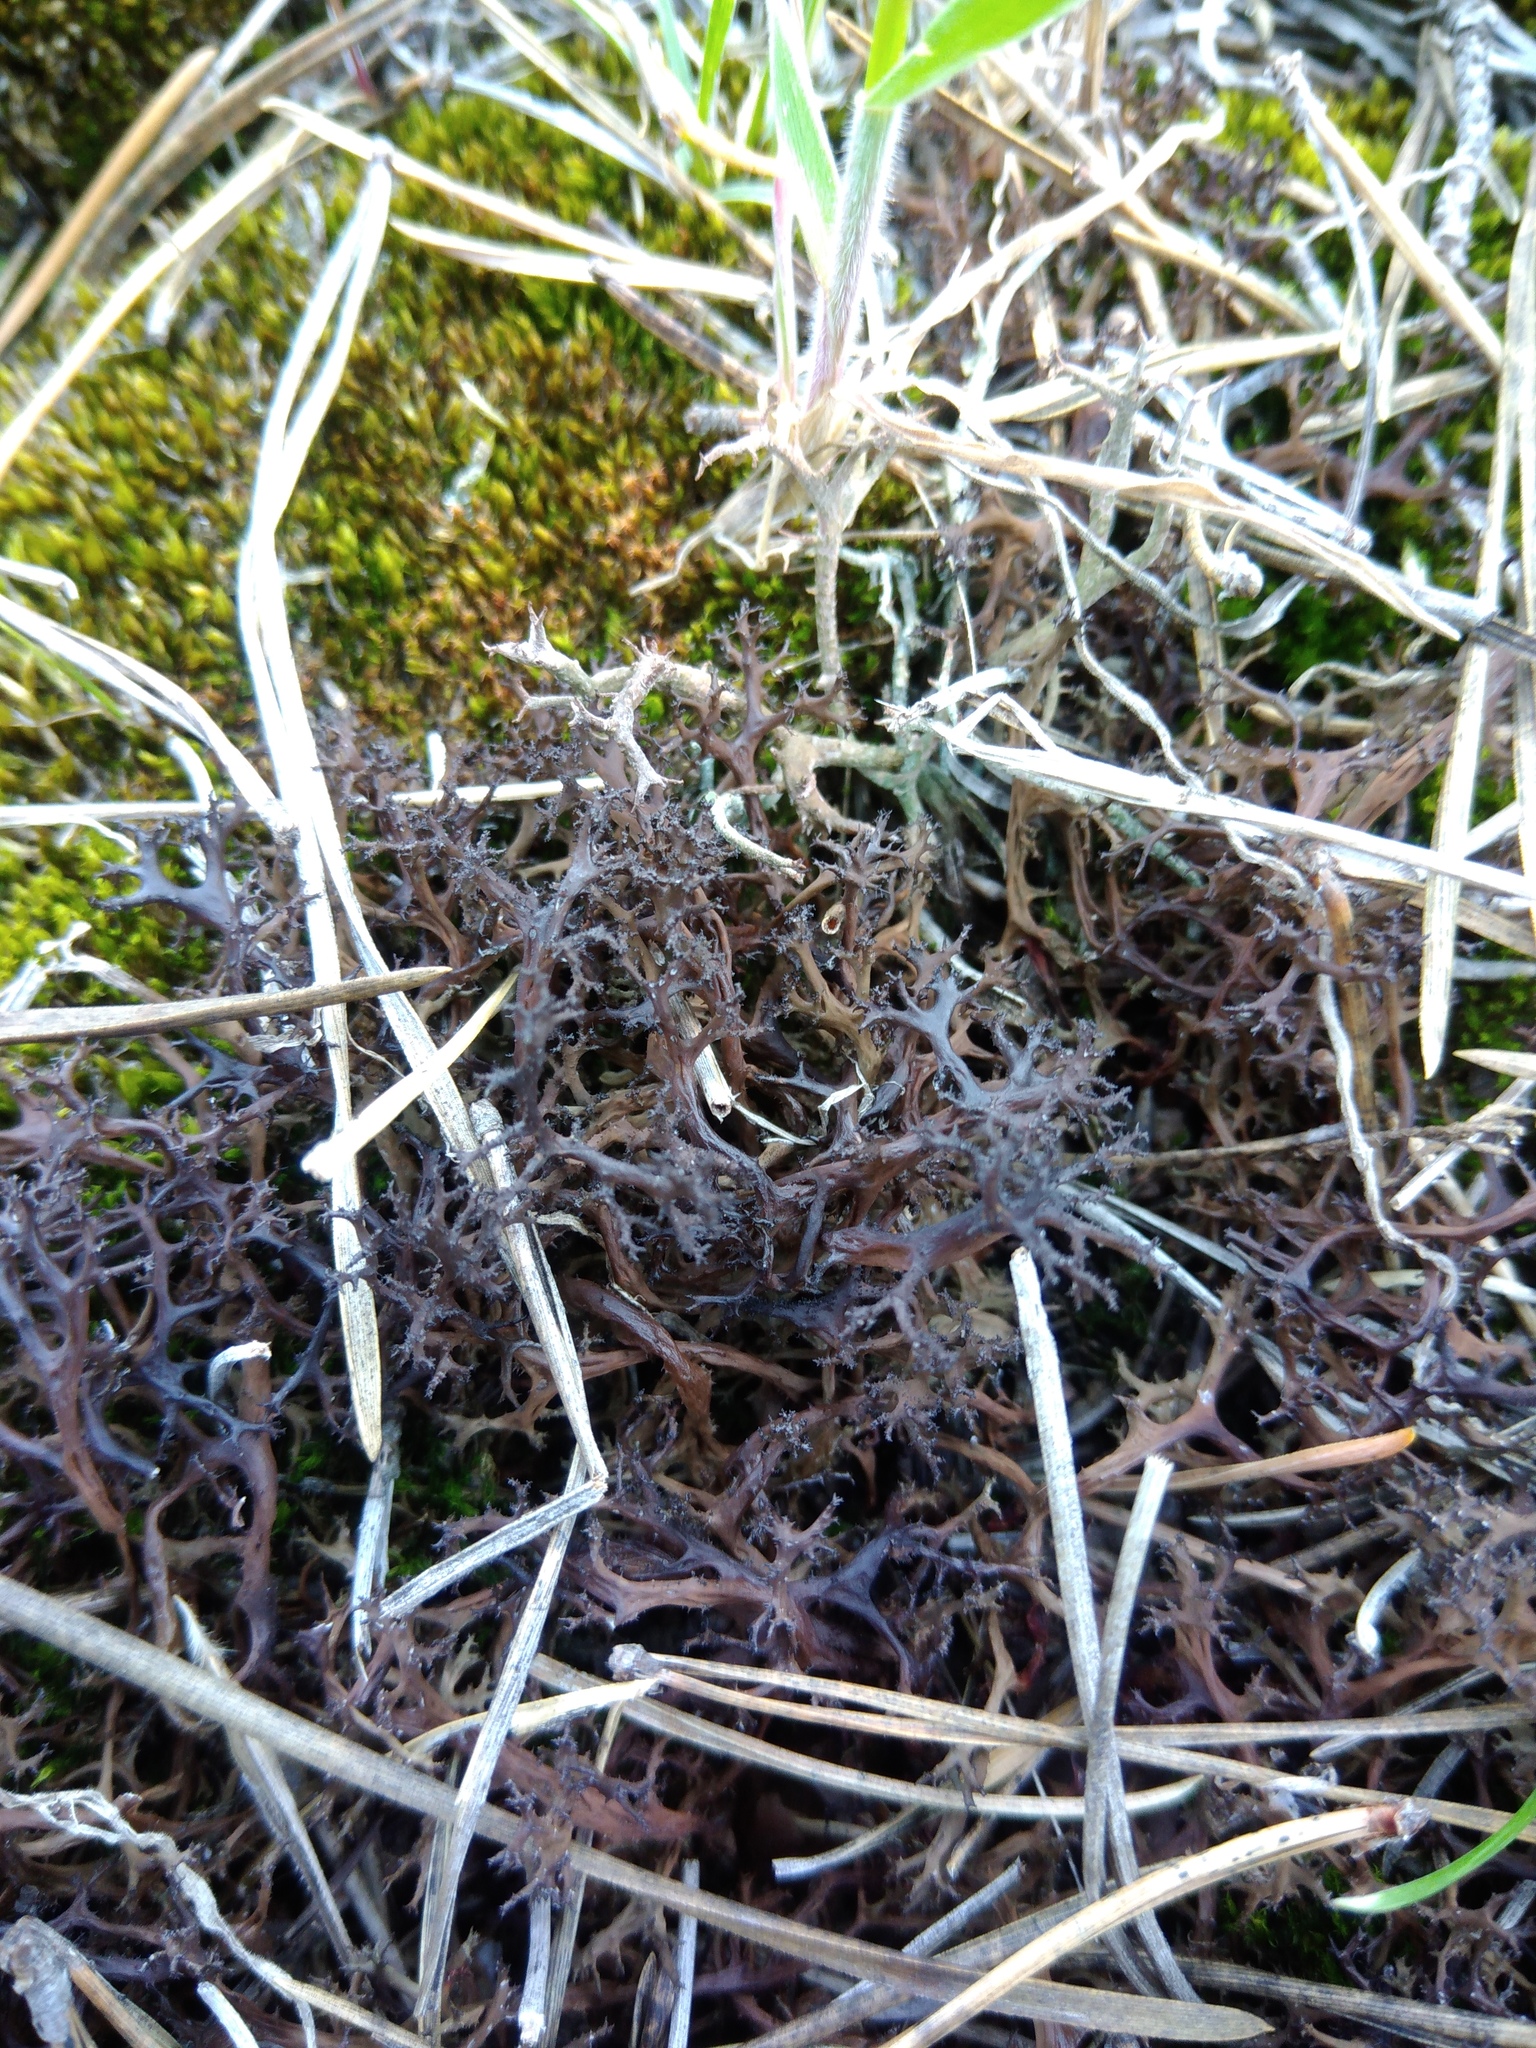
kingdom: Fungi
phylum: Ascomycota
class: Lecanoromycetes
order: Lecanorales
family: Parmeliaceae
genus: Cetraria
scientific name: Cetraria aculeata
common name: Spiny heath lichen
